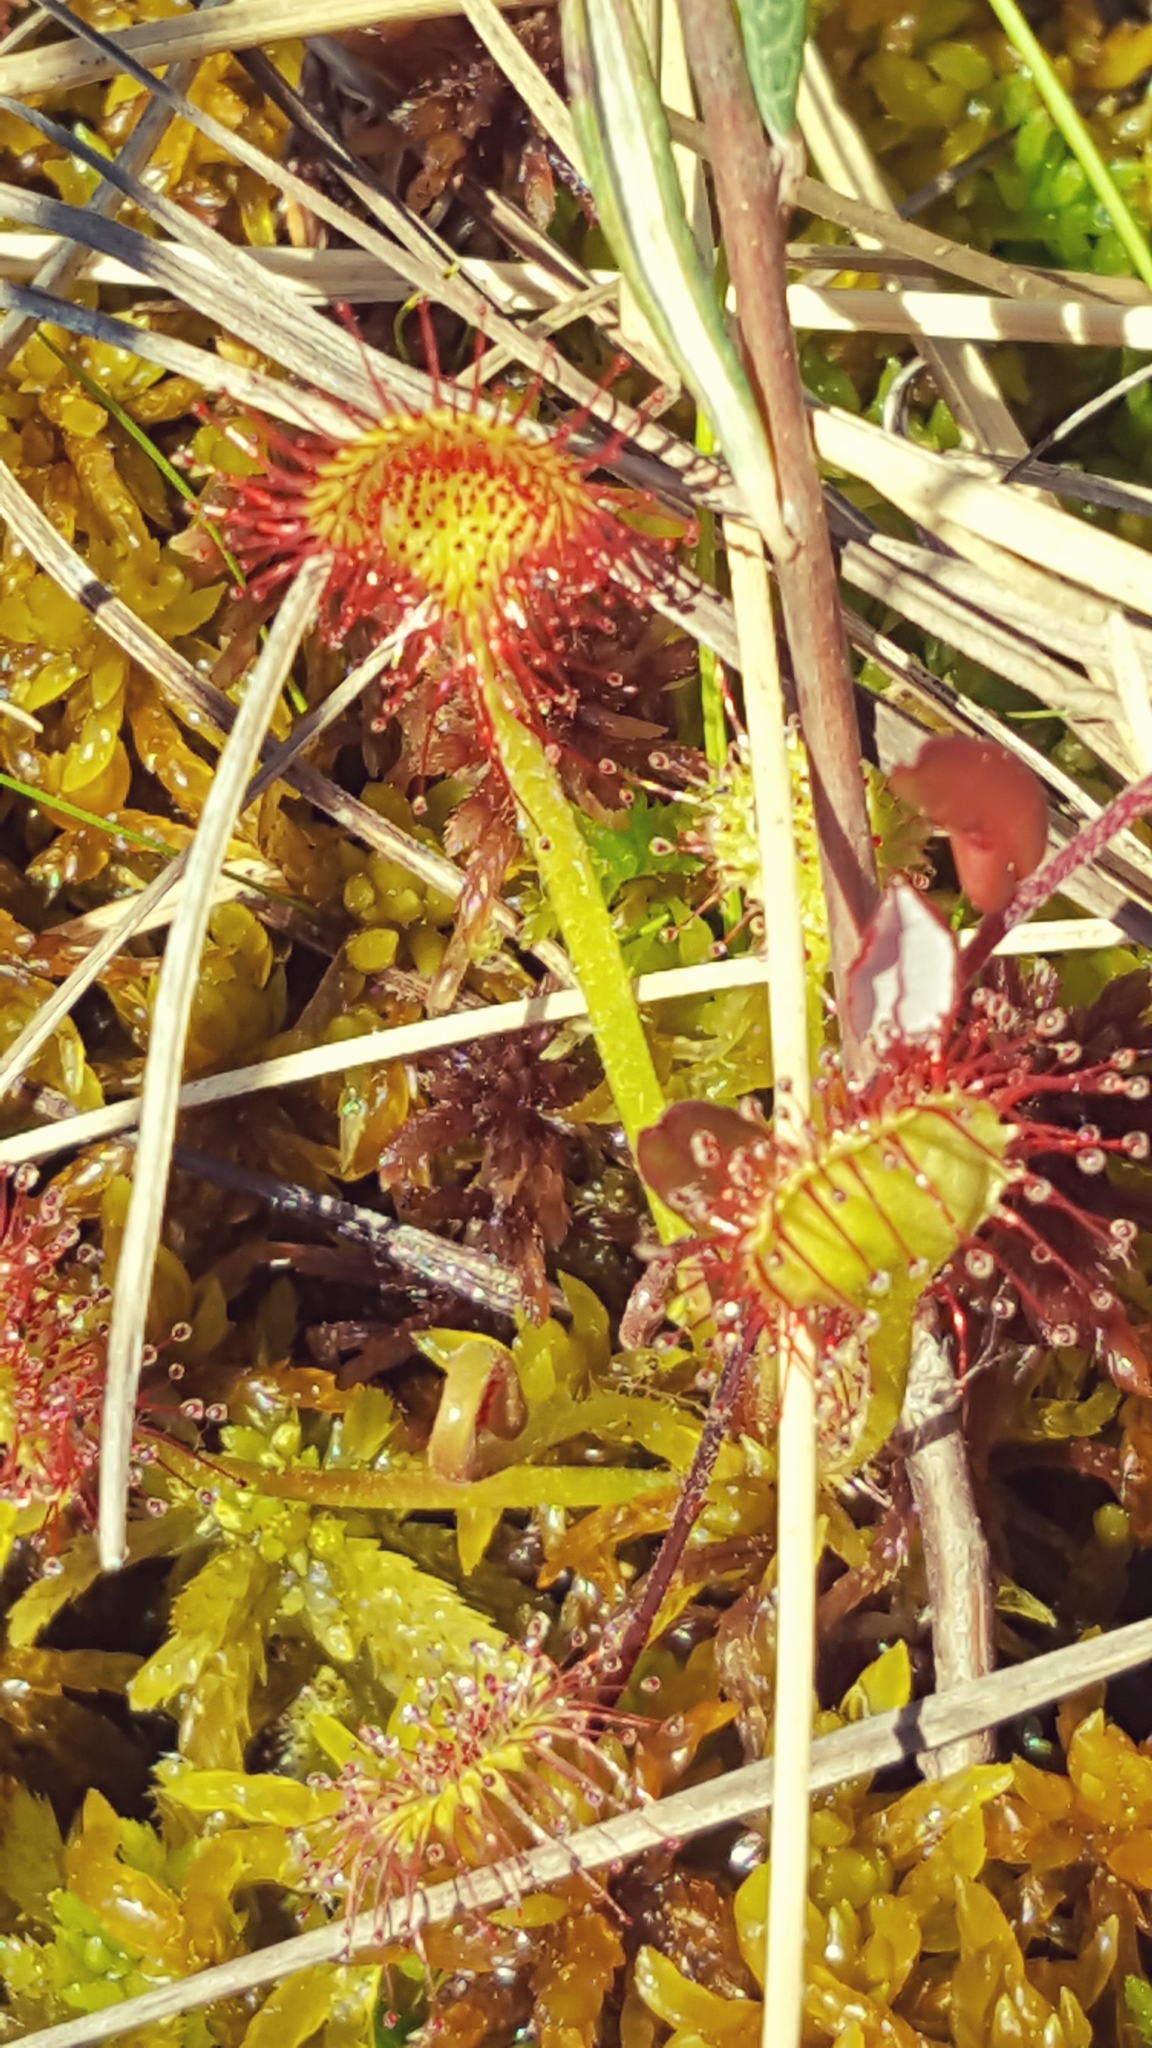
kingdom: Plantae
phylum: Tracheophyta
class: Magnoliopsida
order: Caryophyllales
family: Droseraceae
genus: Drosera
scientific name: Drosera rotundifolia
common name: Round-leaved sundew
